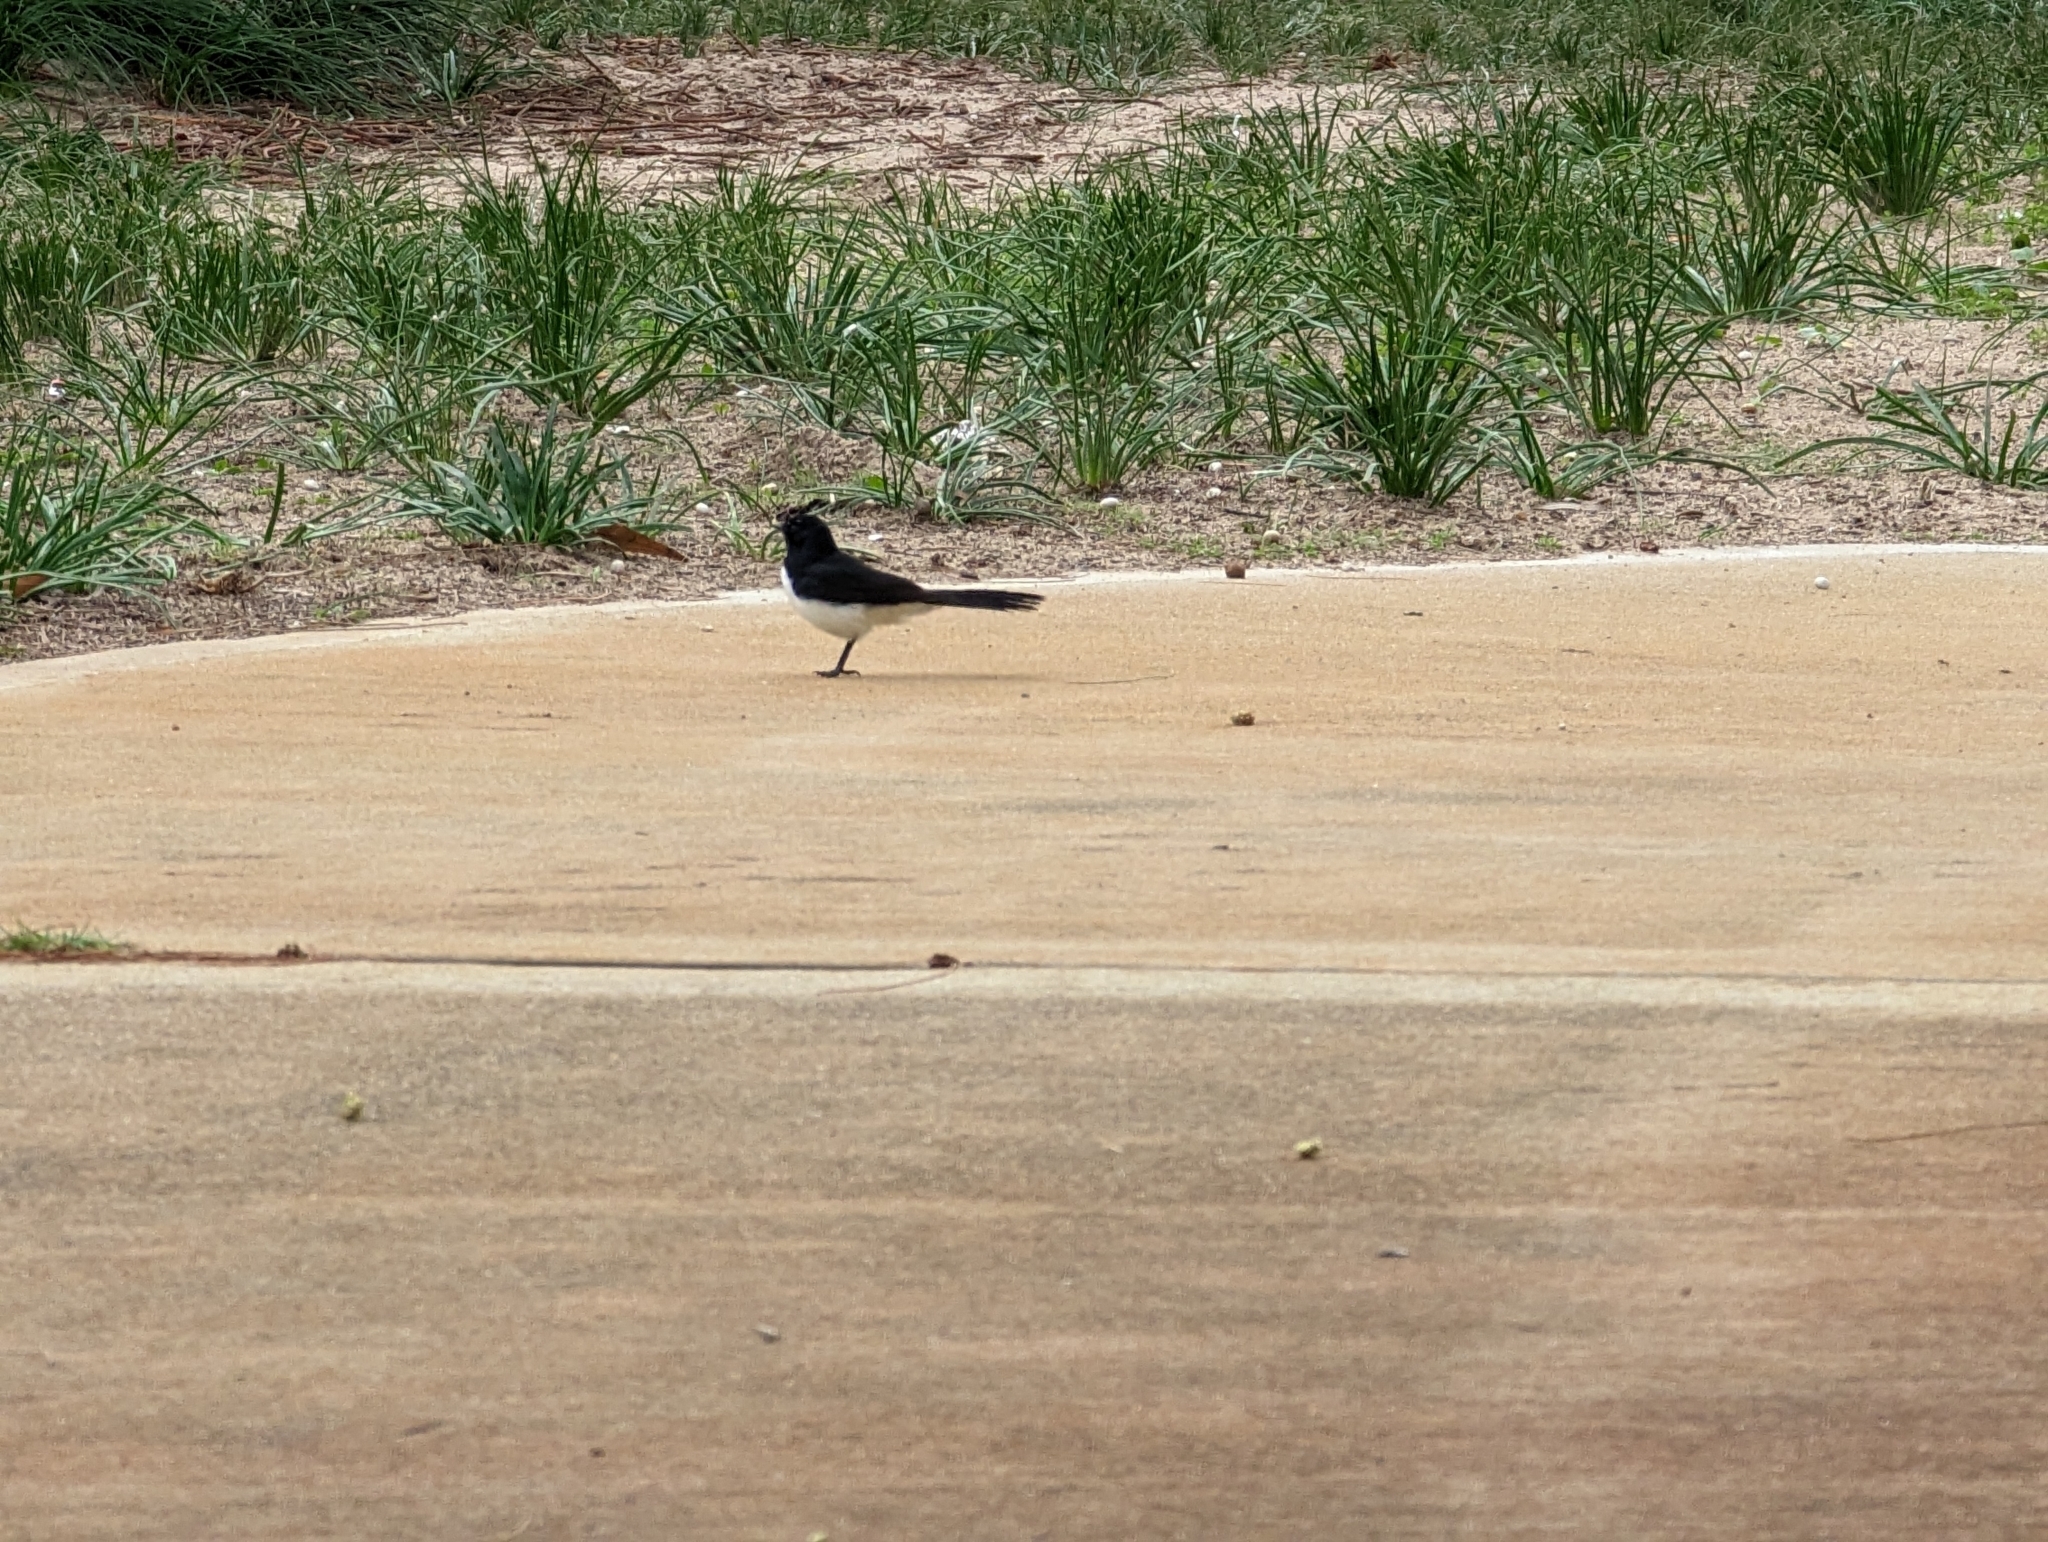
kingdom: Animalia
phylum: Chordata
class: Aves
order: Passeriformes
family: Rhipiduridae
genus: Rhipidura
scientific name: Rhipidura leucophrys
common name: Willie wagtail
